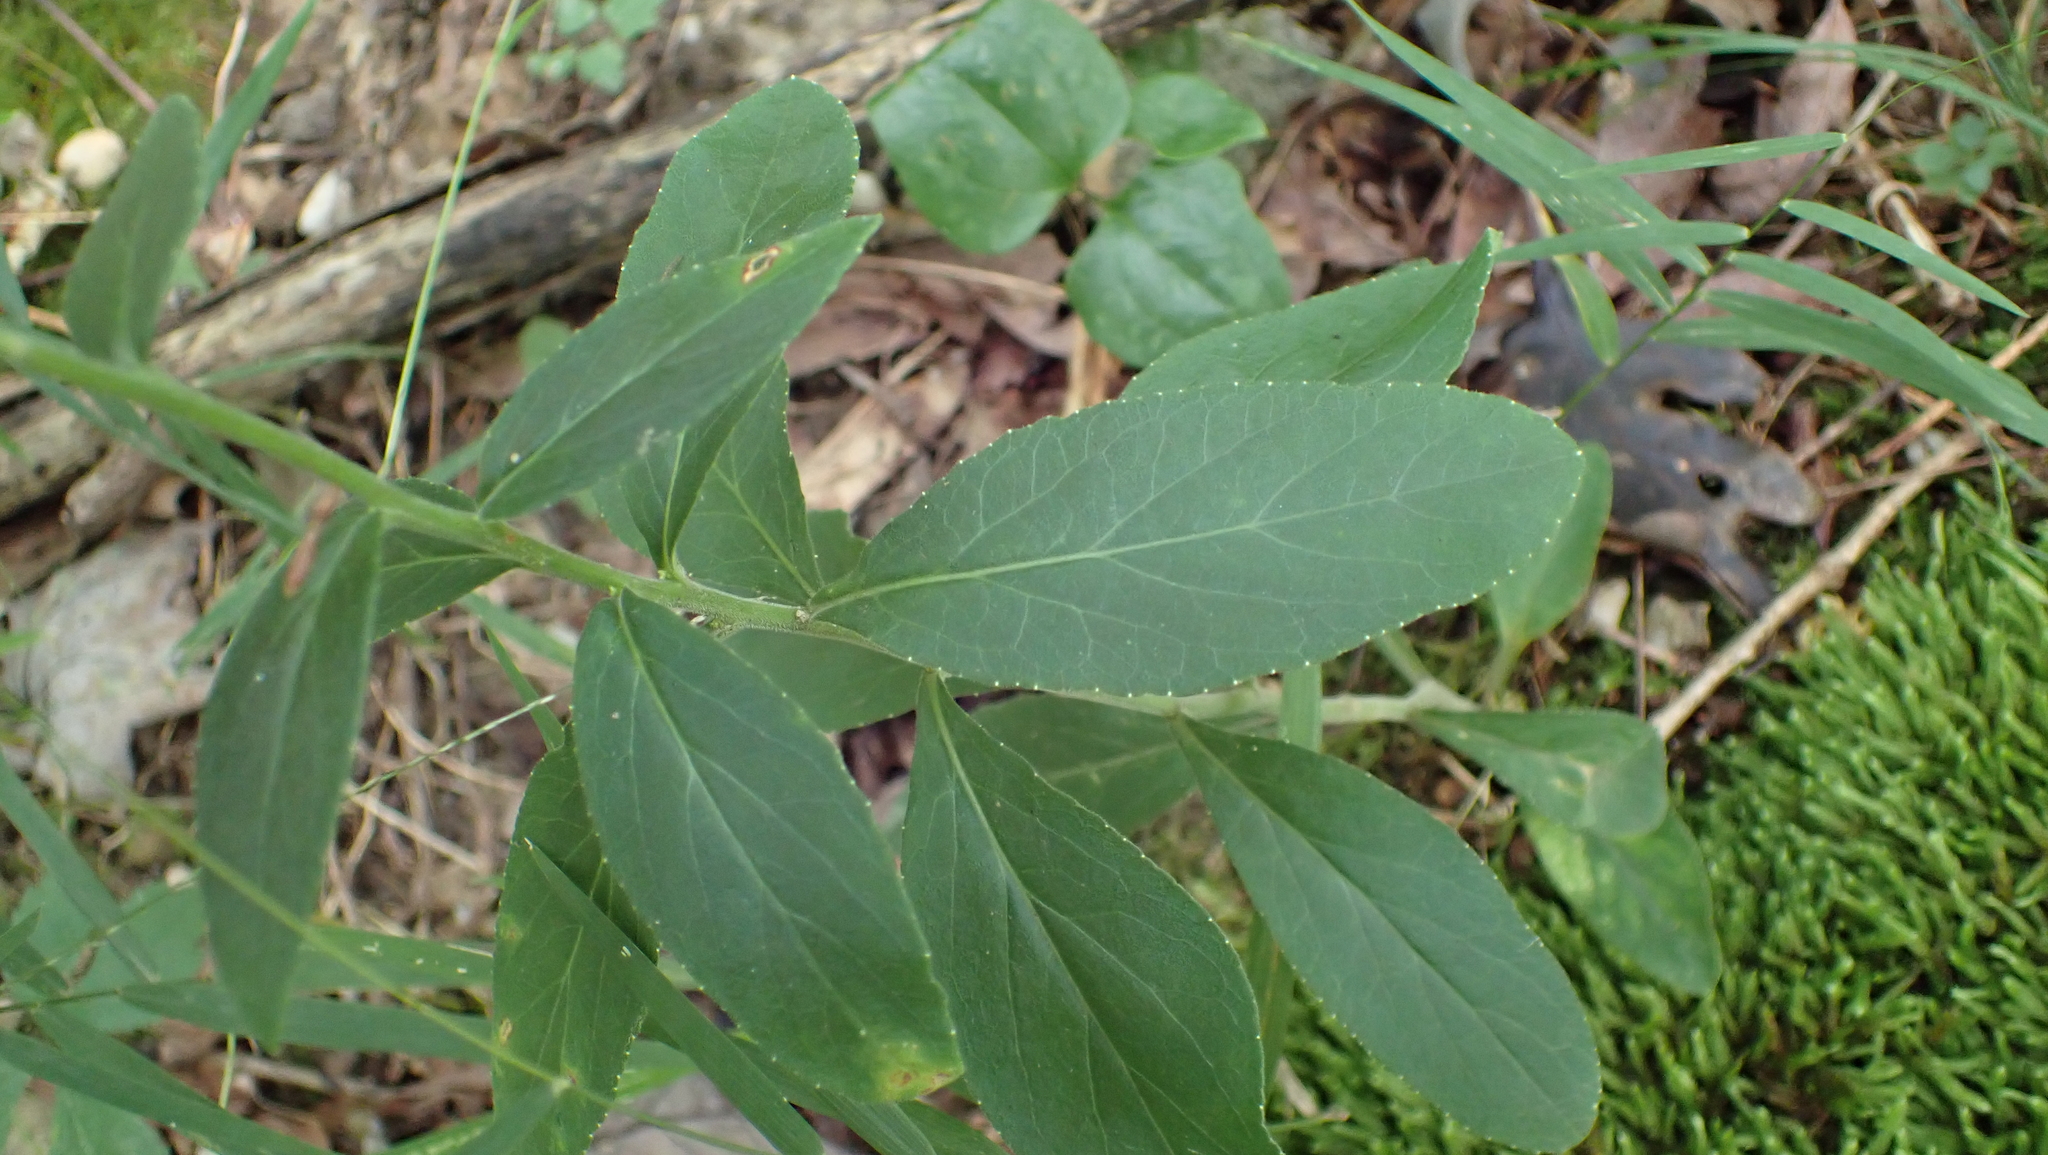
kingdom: Plantae
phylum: Tracheophyta
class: Magnoliopsida
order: Asterales
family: Campanulaceae
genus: Lobelia
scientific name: Lobelia puberula
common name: Purple dewdrop
